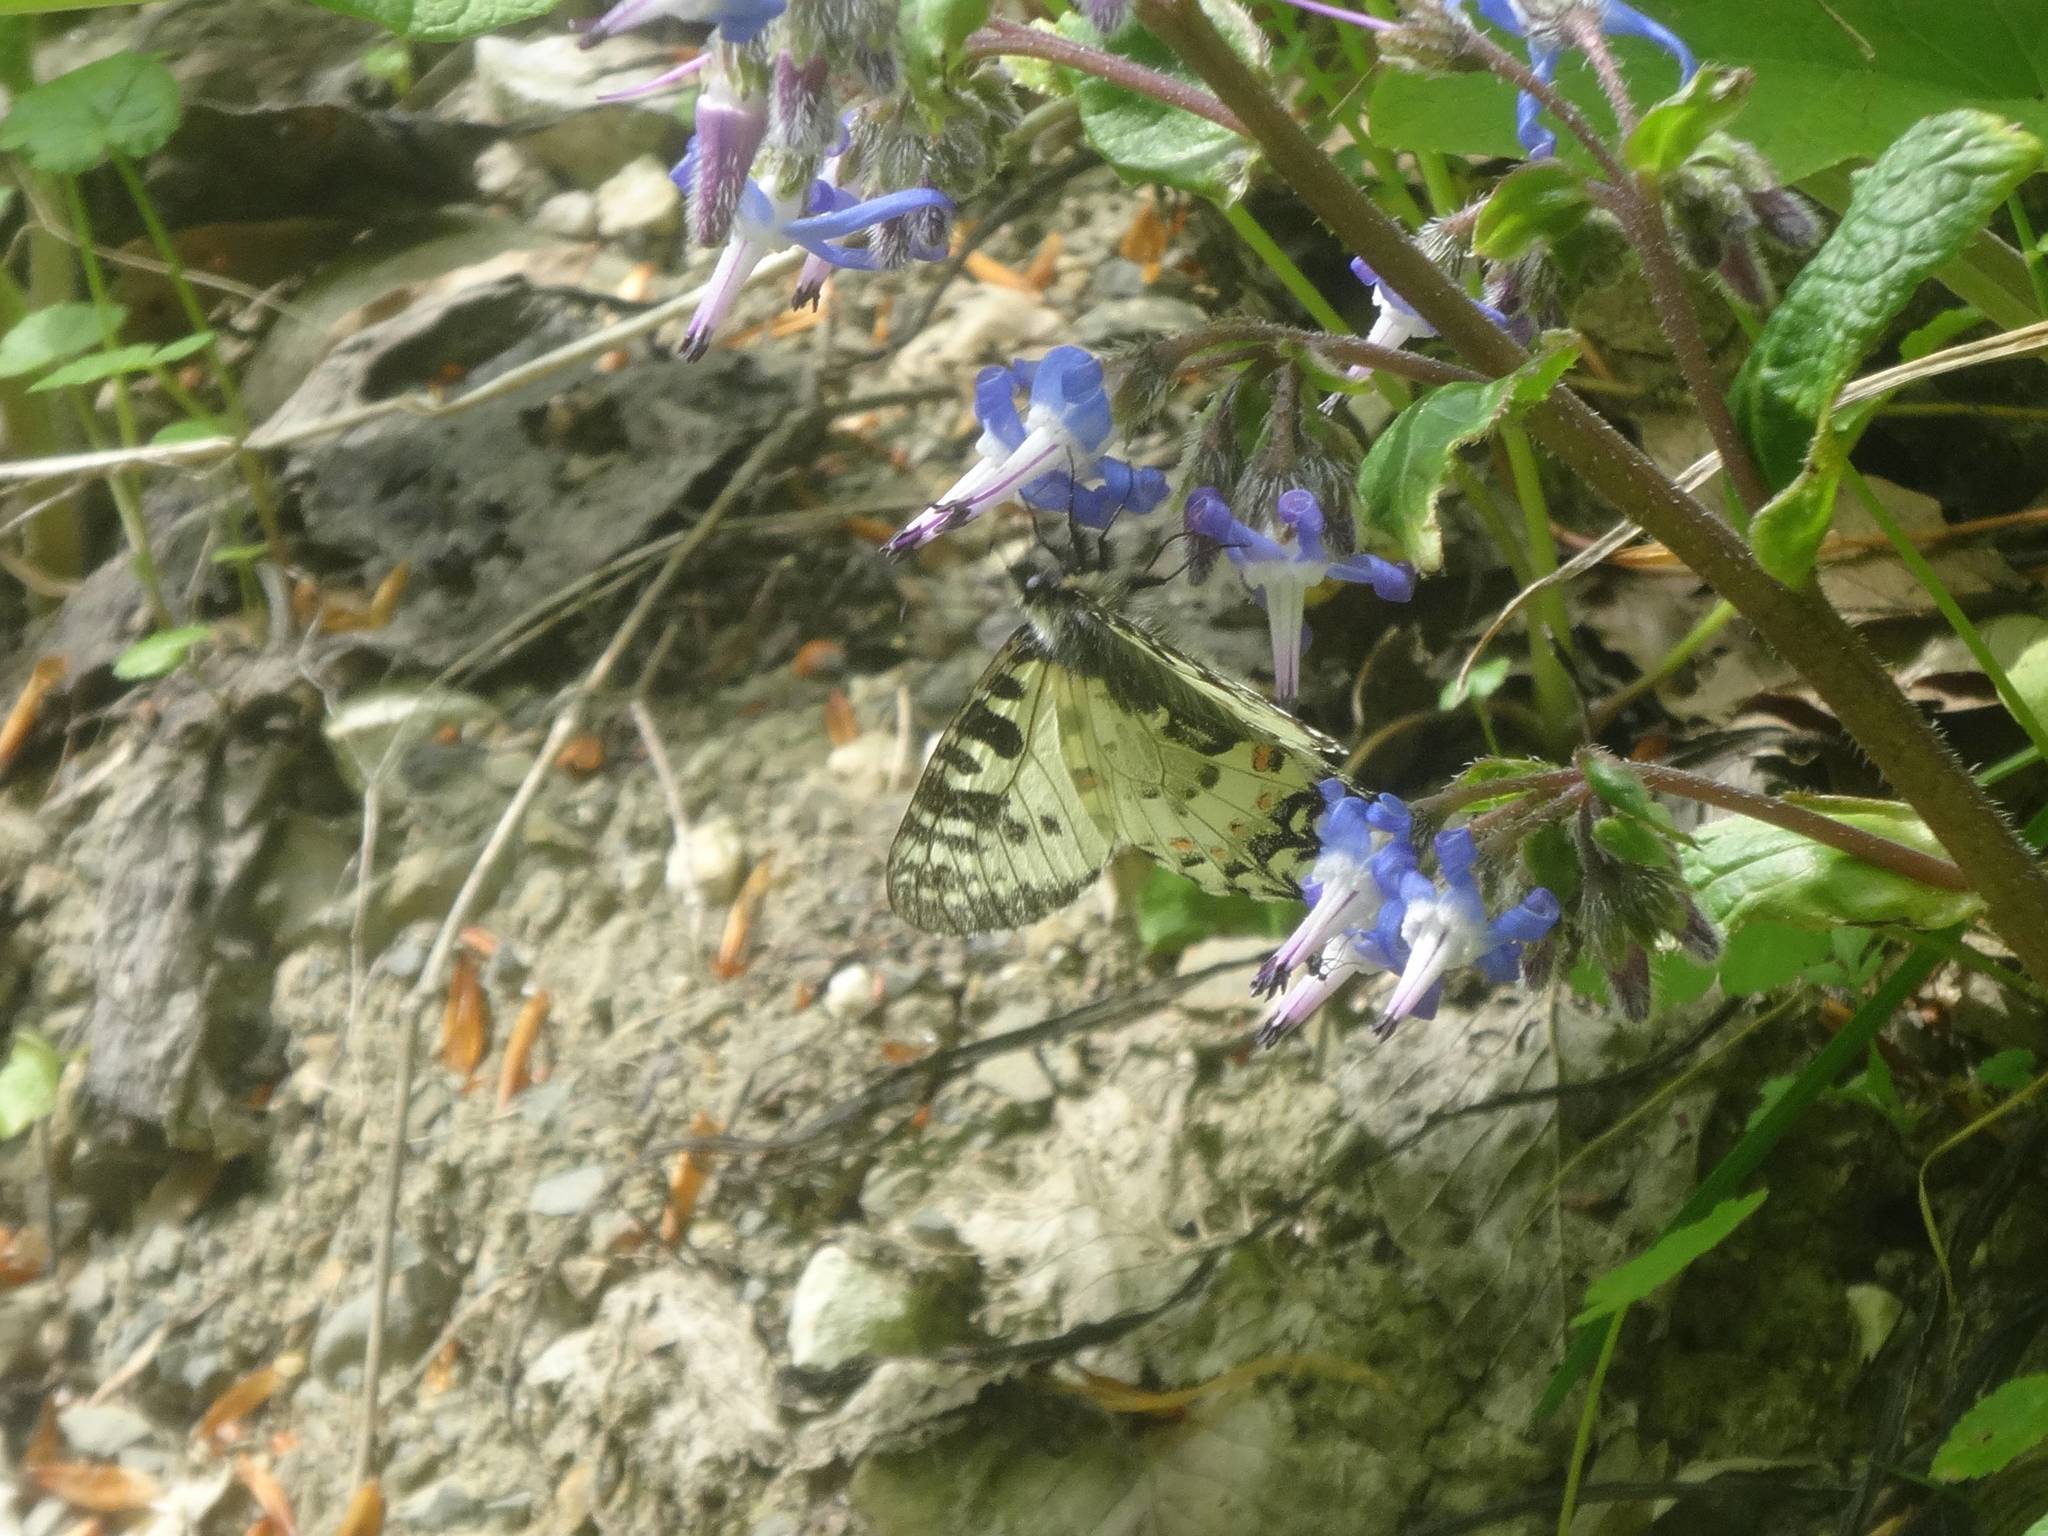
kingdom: Animalia
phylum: Arthropoda
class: Insecta
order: Lepidoptera
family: Papilionidae
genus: Zerynthia
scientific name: Zerynthia caucasica
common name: Caucasian festoon
